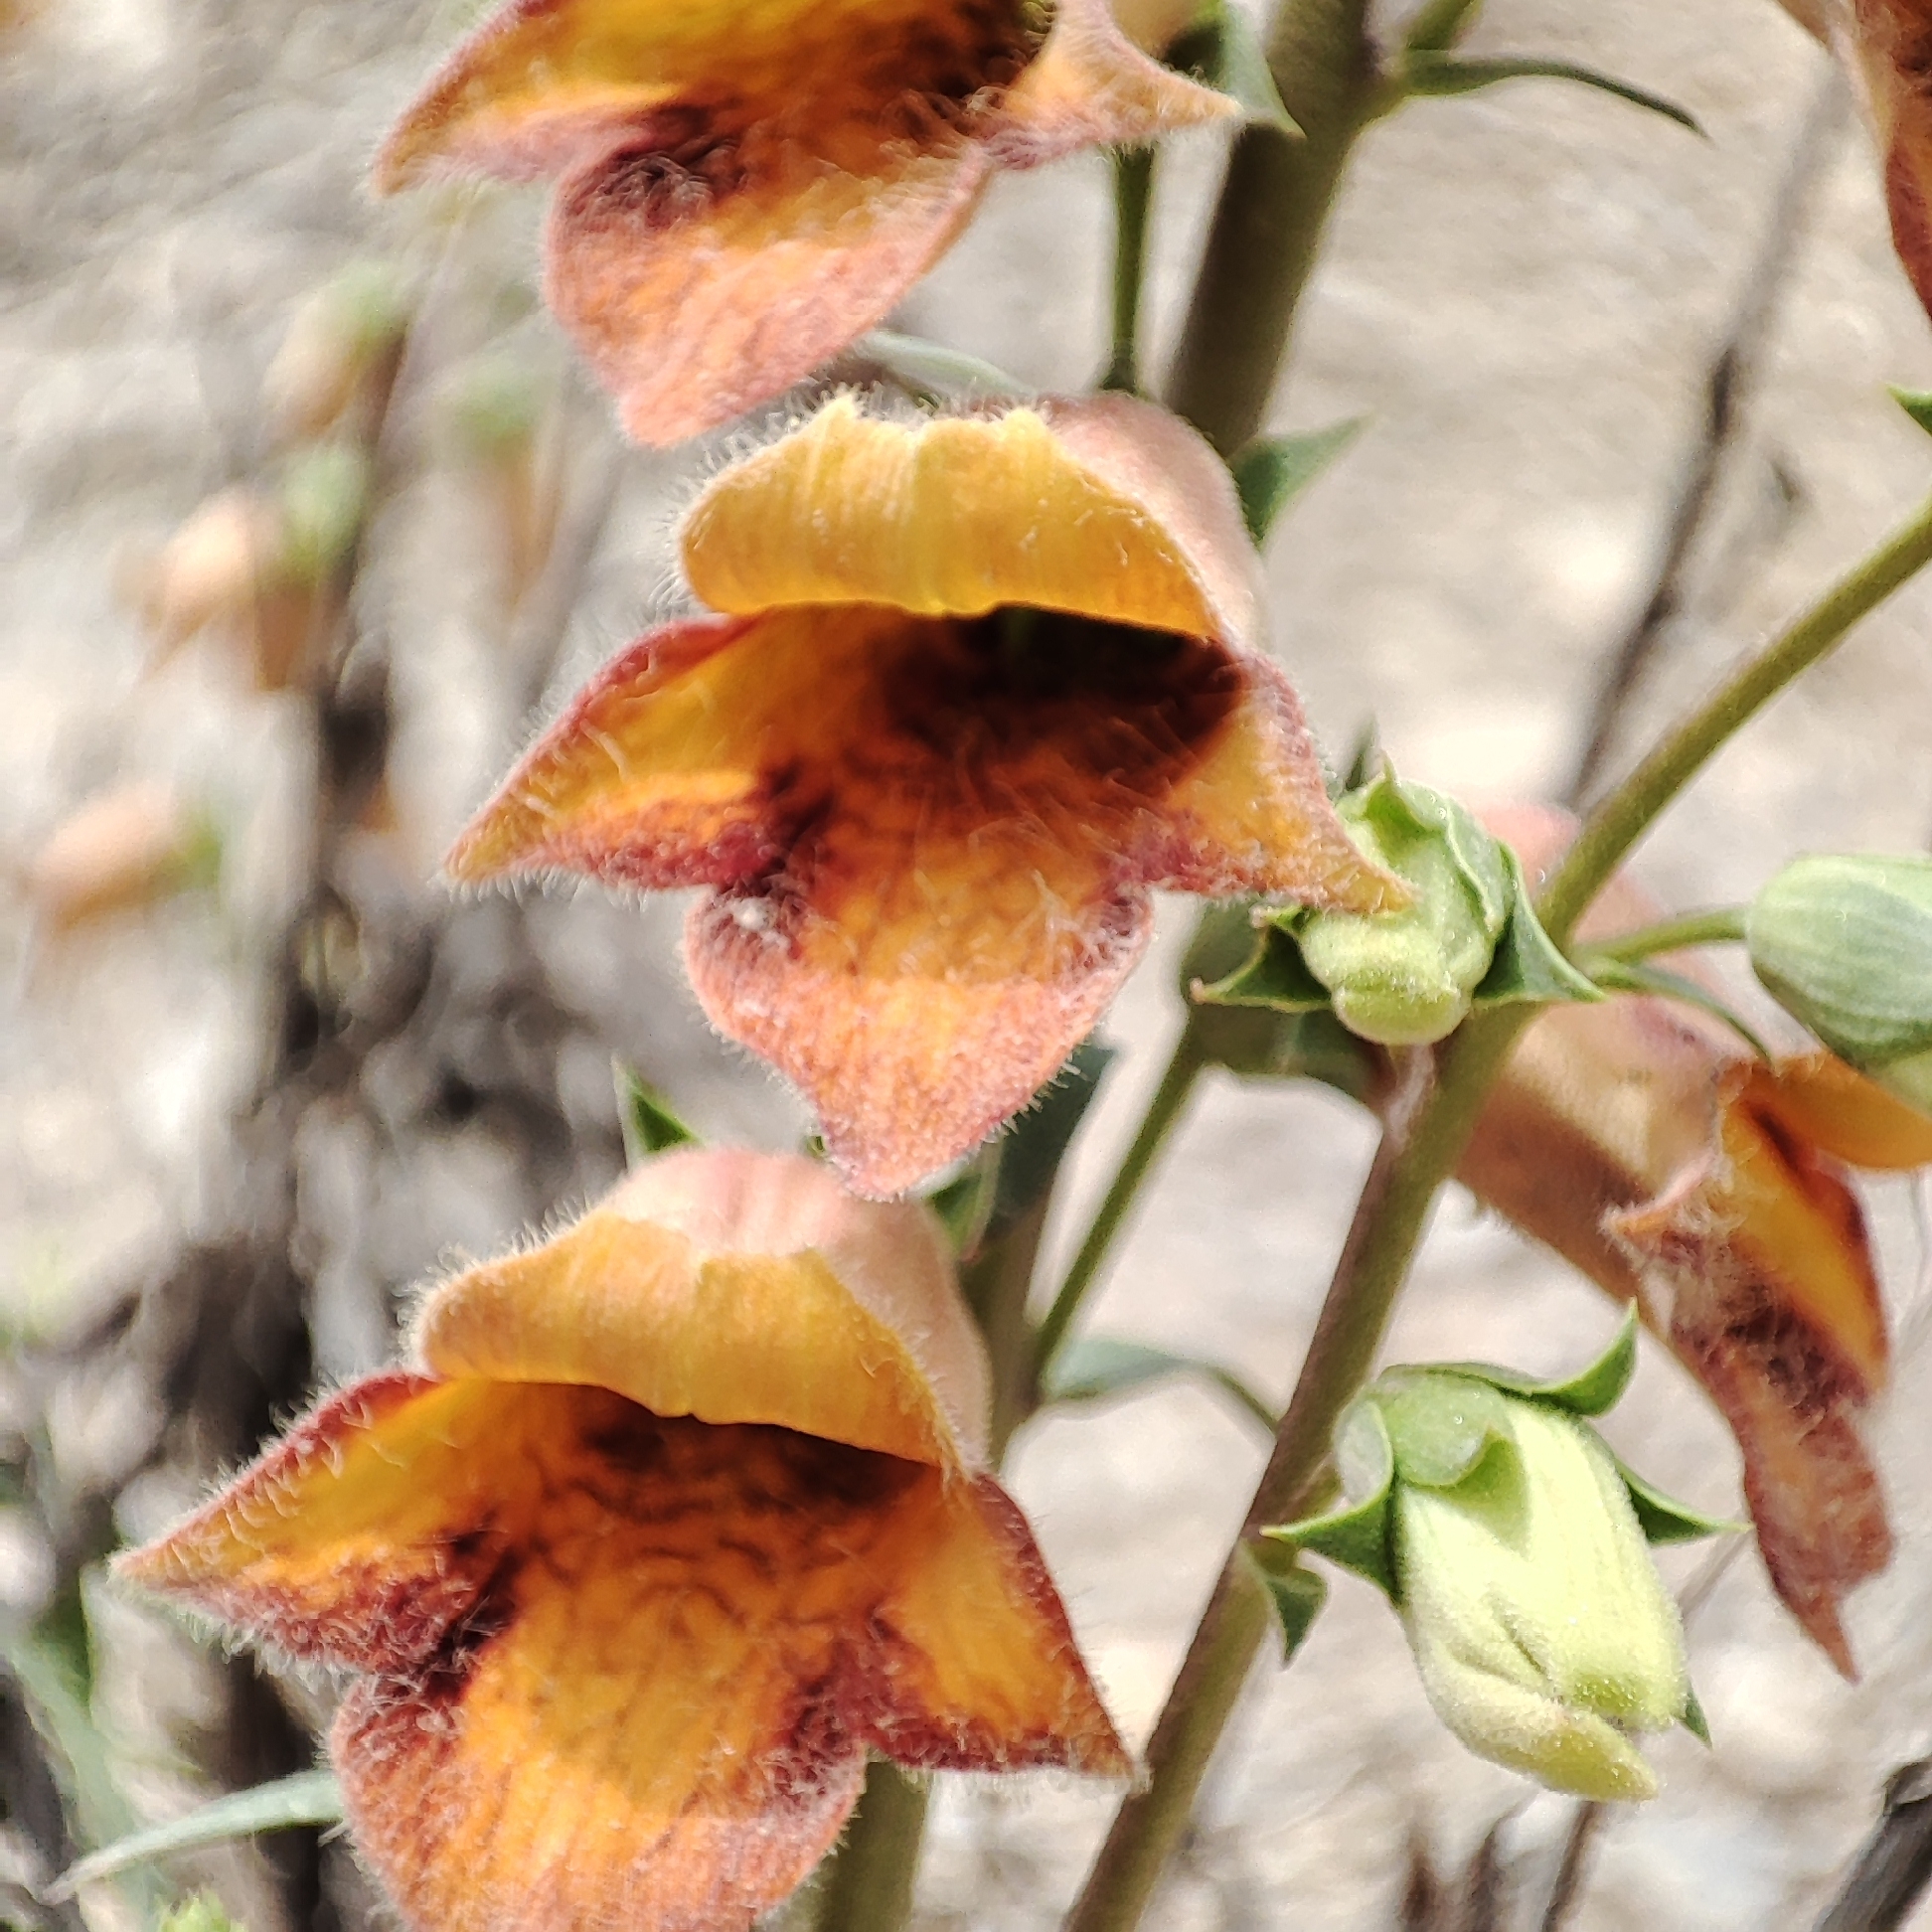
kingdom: Plantae
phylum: Tracheophyta
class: Magnoliopsida
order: Lamiales
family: Plantaginaceae
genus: Digitalis
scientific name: Digitalis obscura
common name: Willow-leaf foxglove
